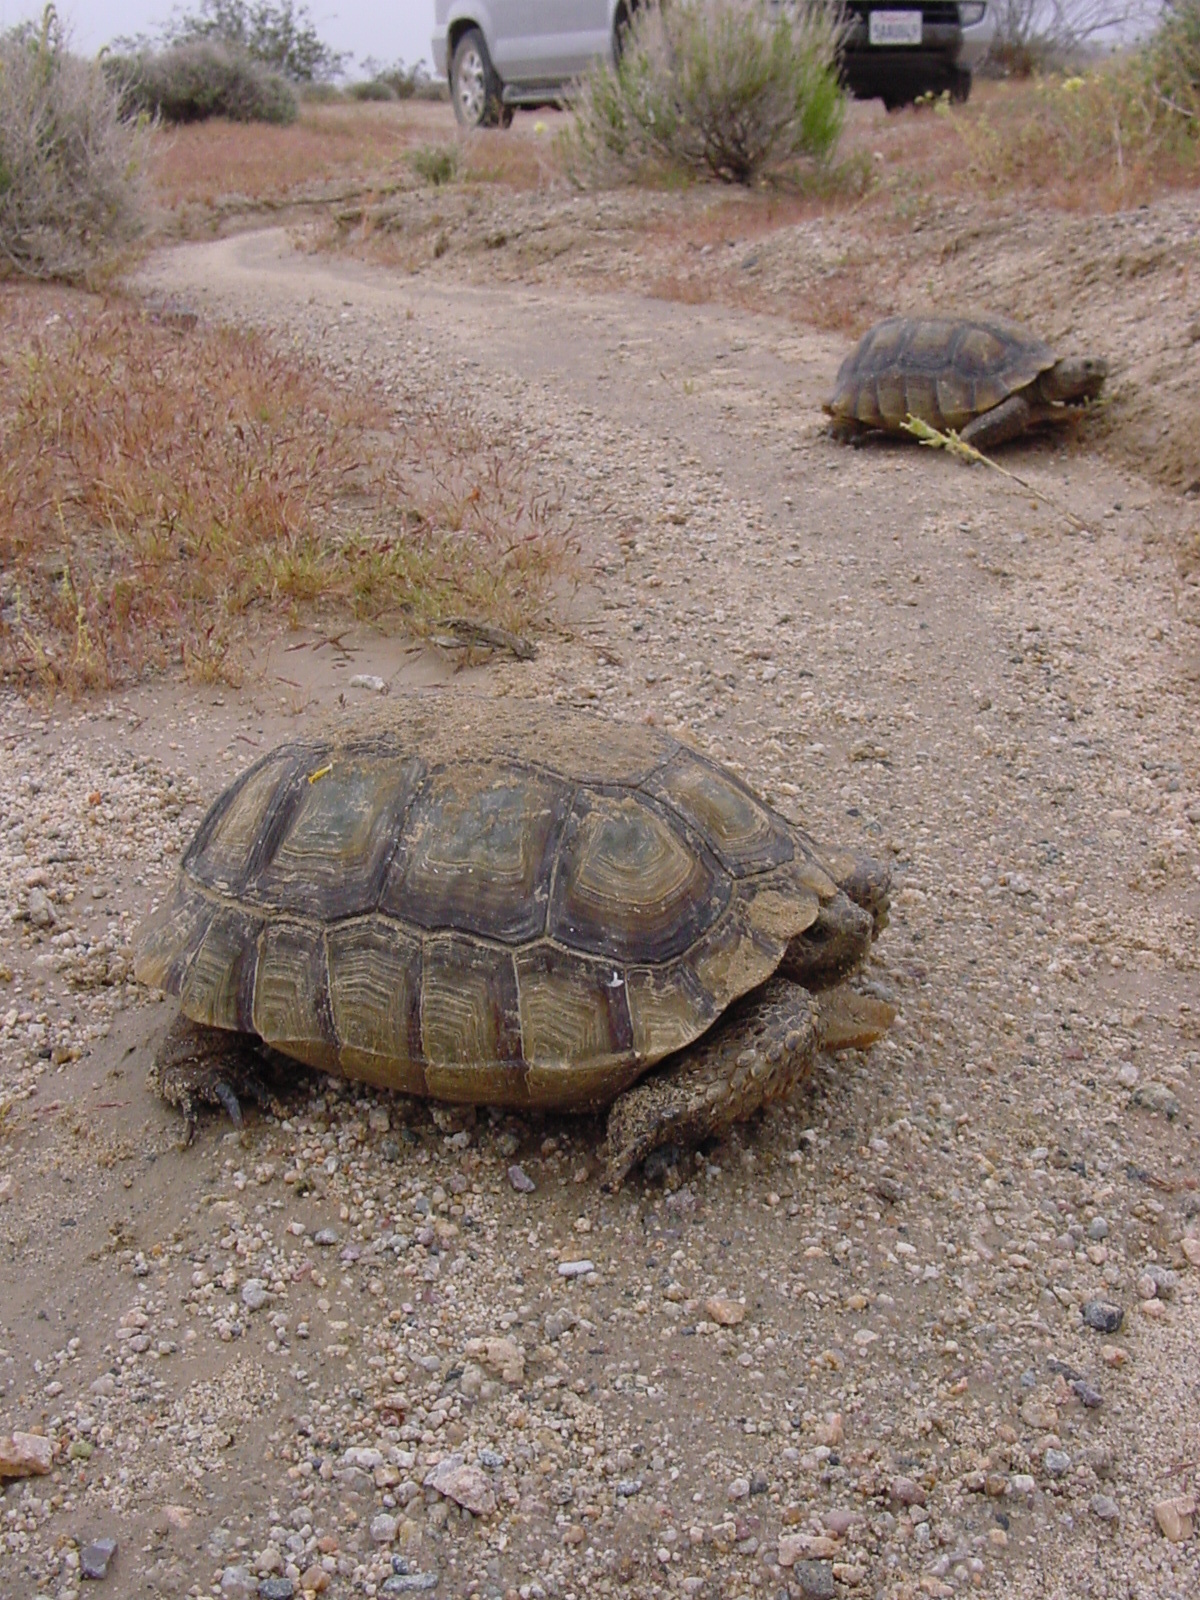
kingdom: Animalia
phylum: Chordata
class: Testudines
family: Testudinidae
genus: Gopherus
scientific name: Gopherus agassizii
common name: Mojave desert tortoise
